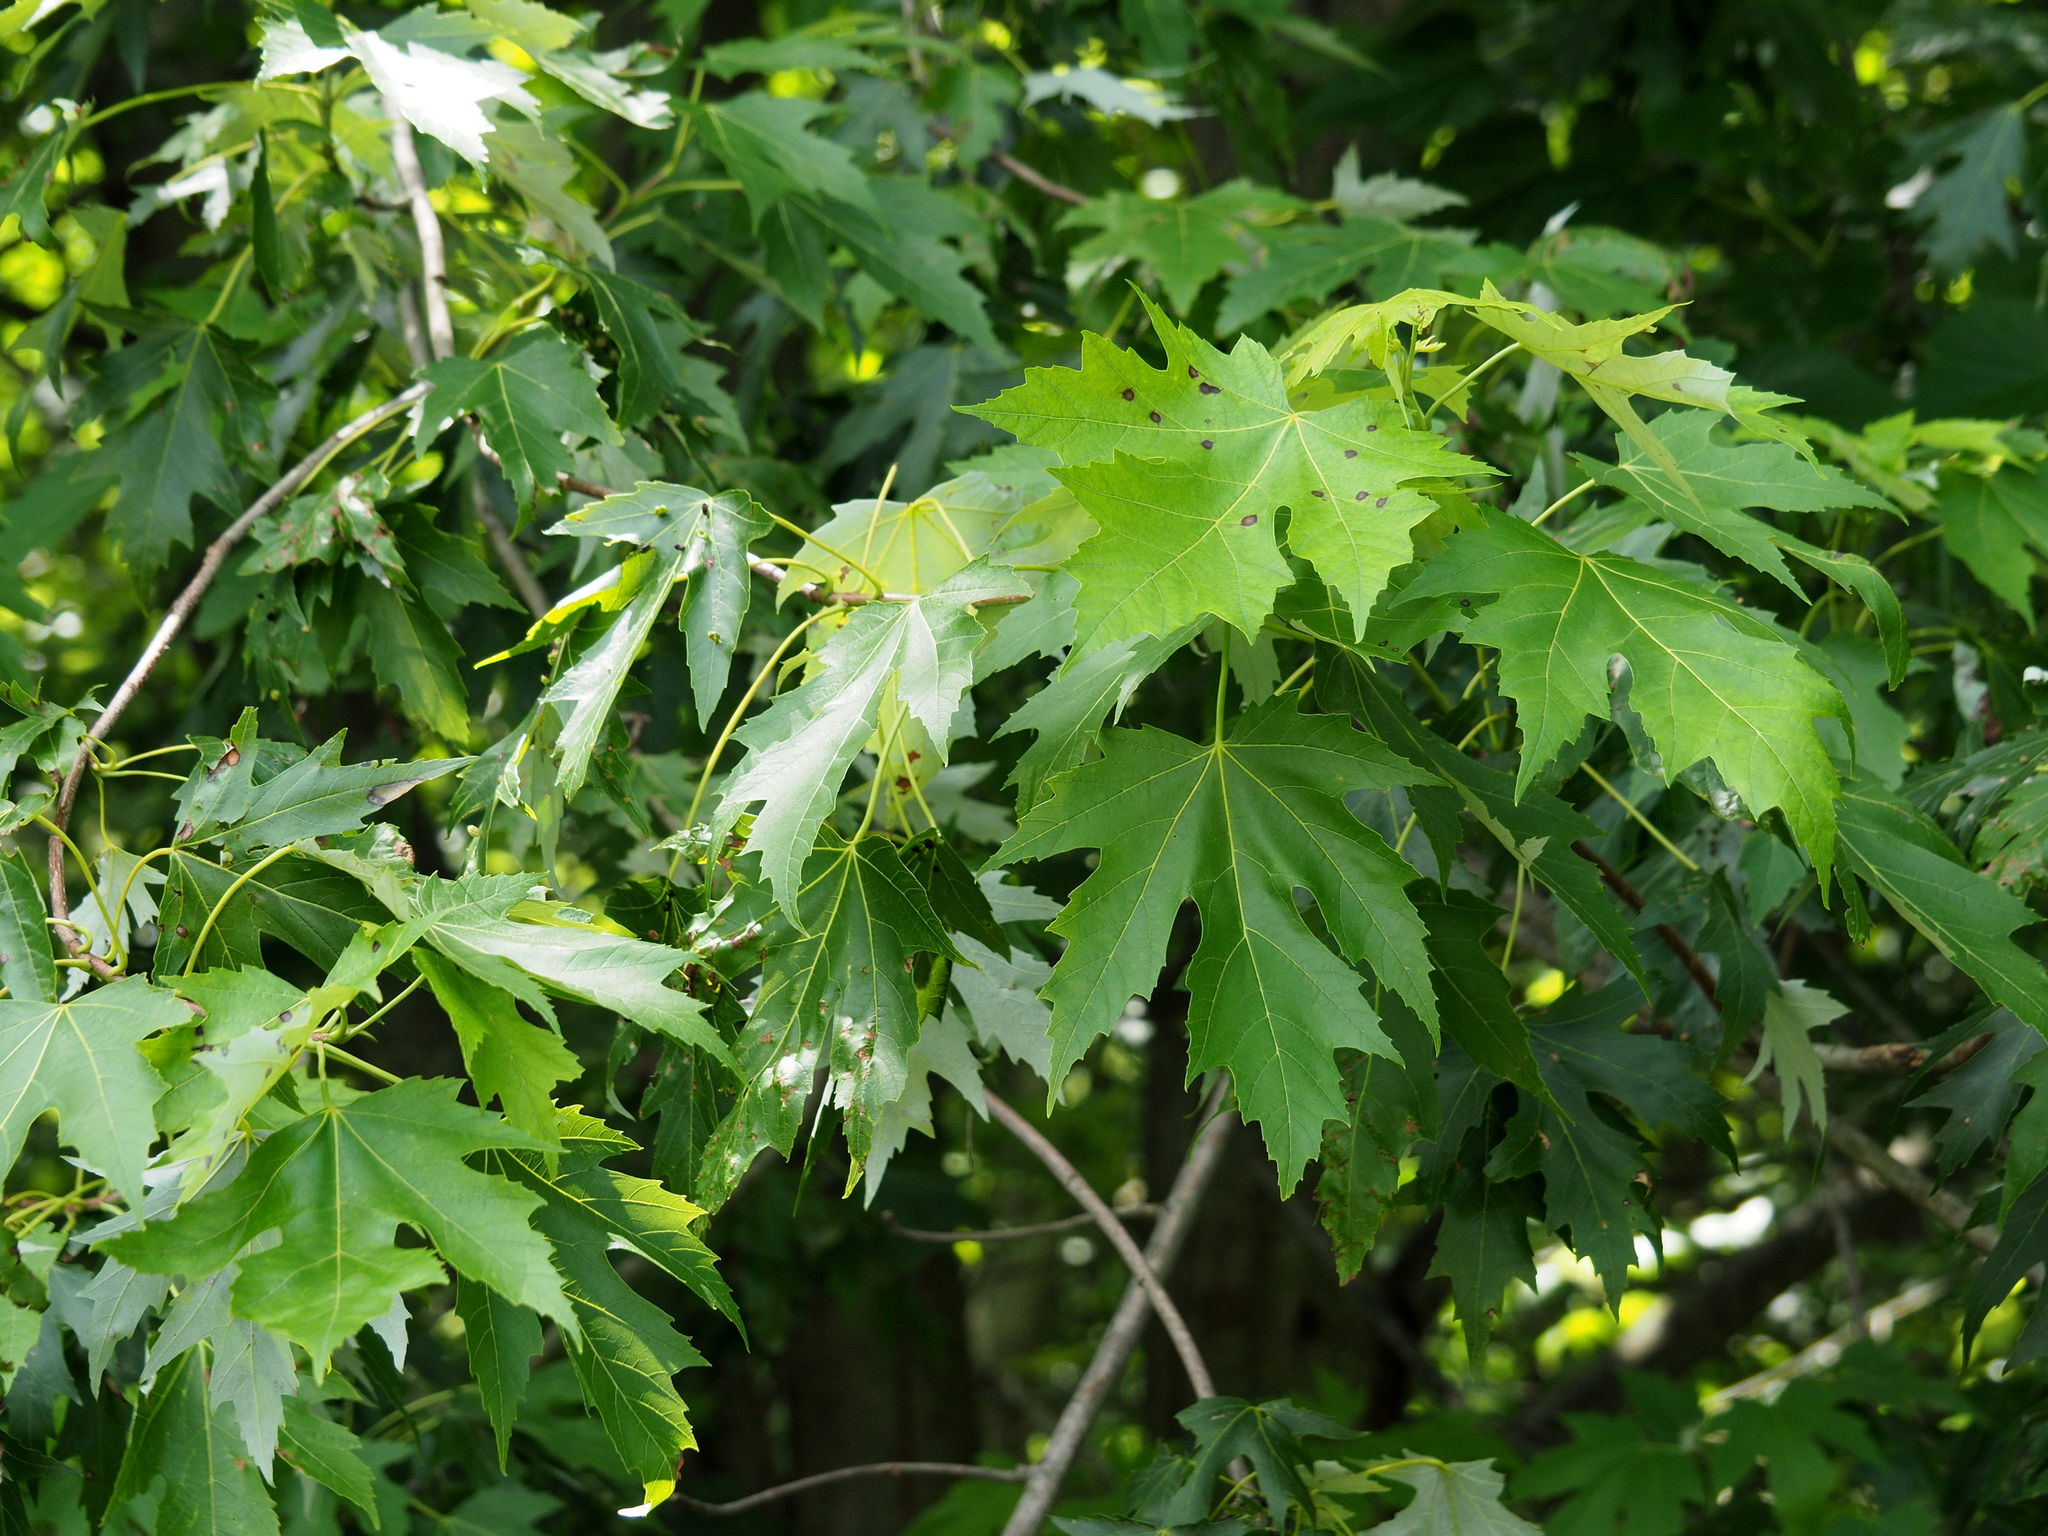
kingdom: Plantae
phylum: Tracheophyta
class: Magnoliopsida
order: Sapindales
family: Sapindaceae
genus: Acer
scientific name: Acer saccharinum
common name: Silver maple
